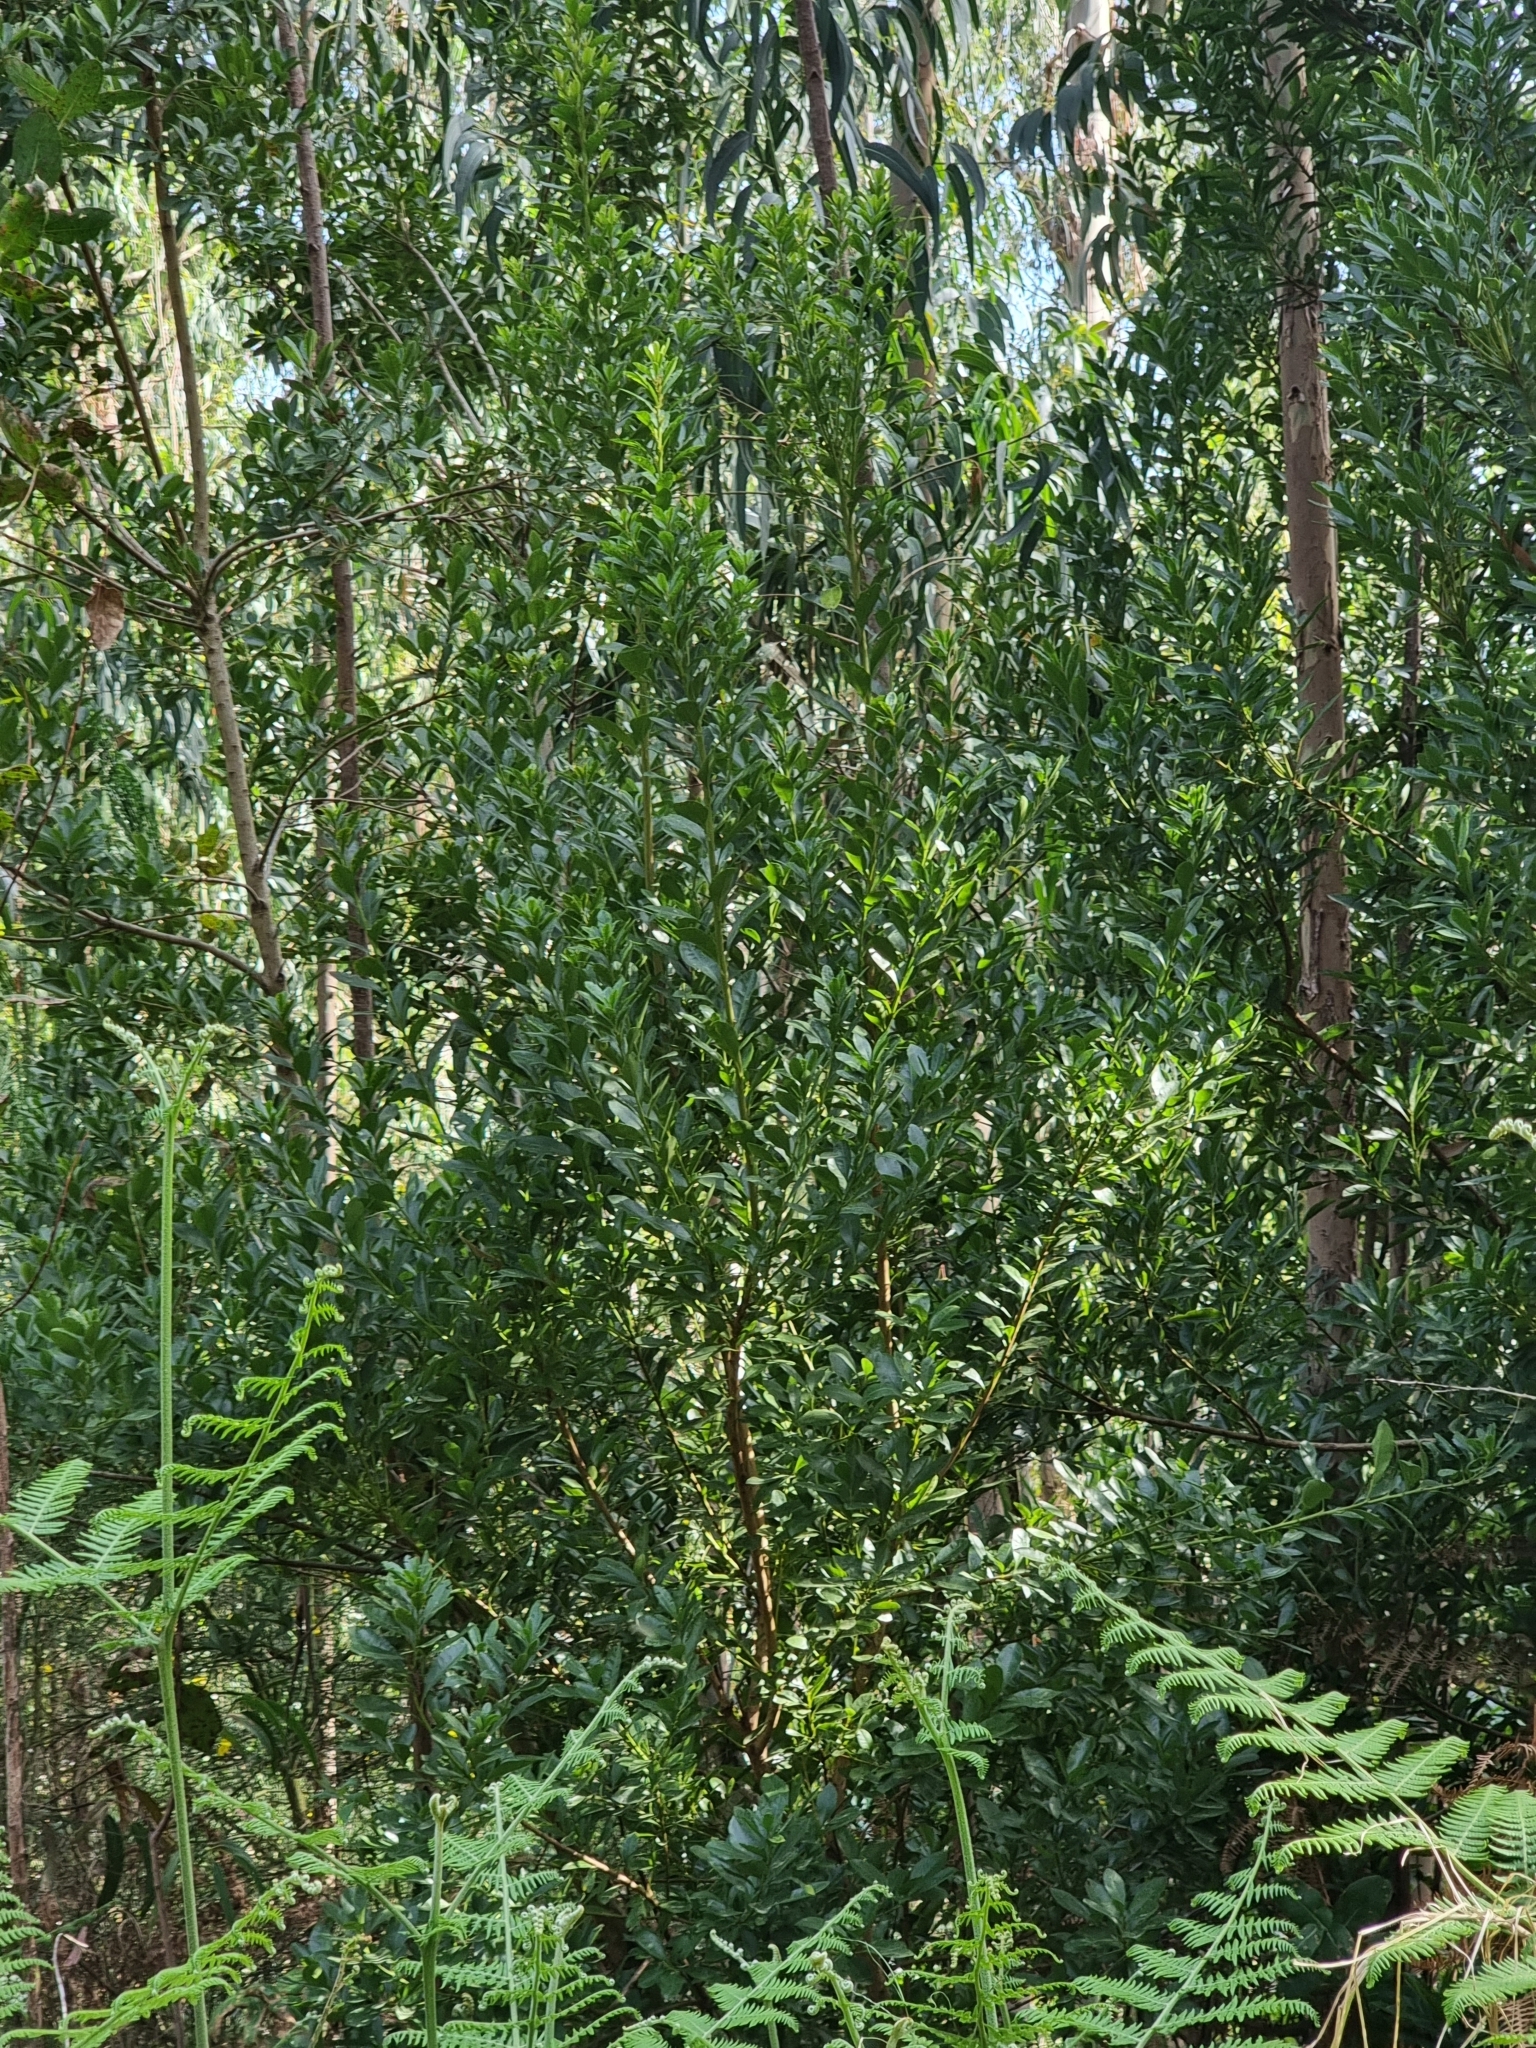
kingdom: Plantae
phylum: Tracheophyta
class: Magnoliopsida
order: Fagales
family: Myricaceae
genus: Morella
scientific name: Morella faya
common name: Firetree
